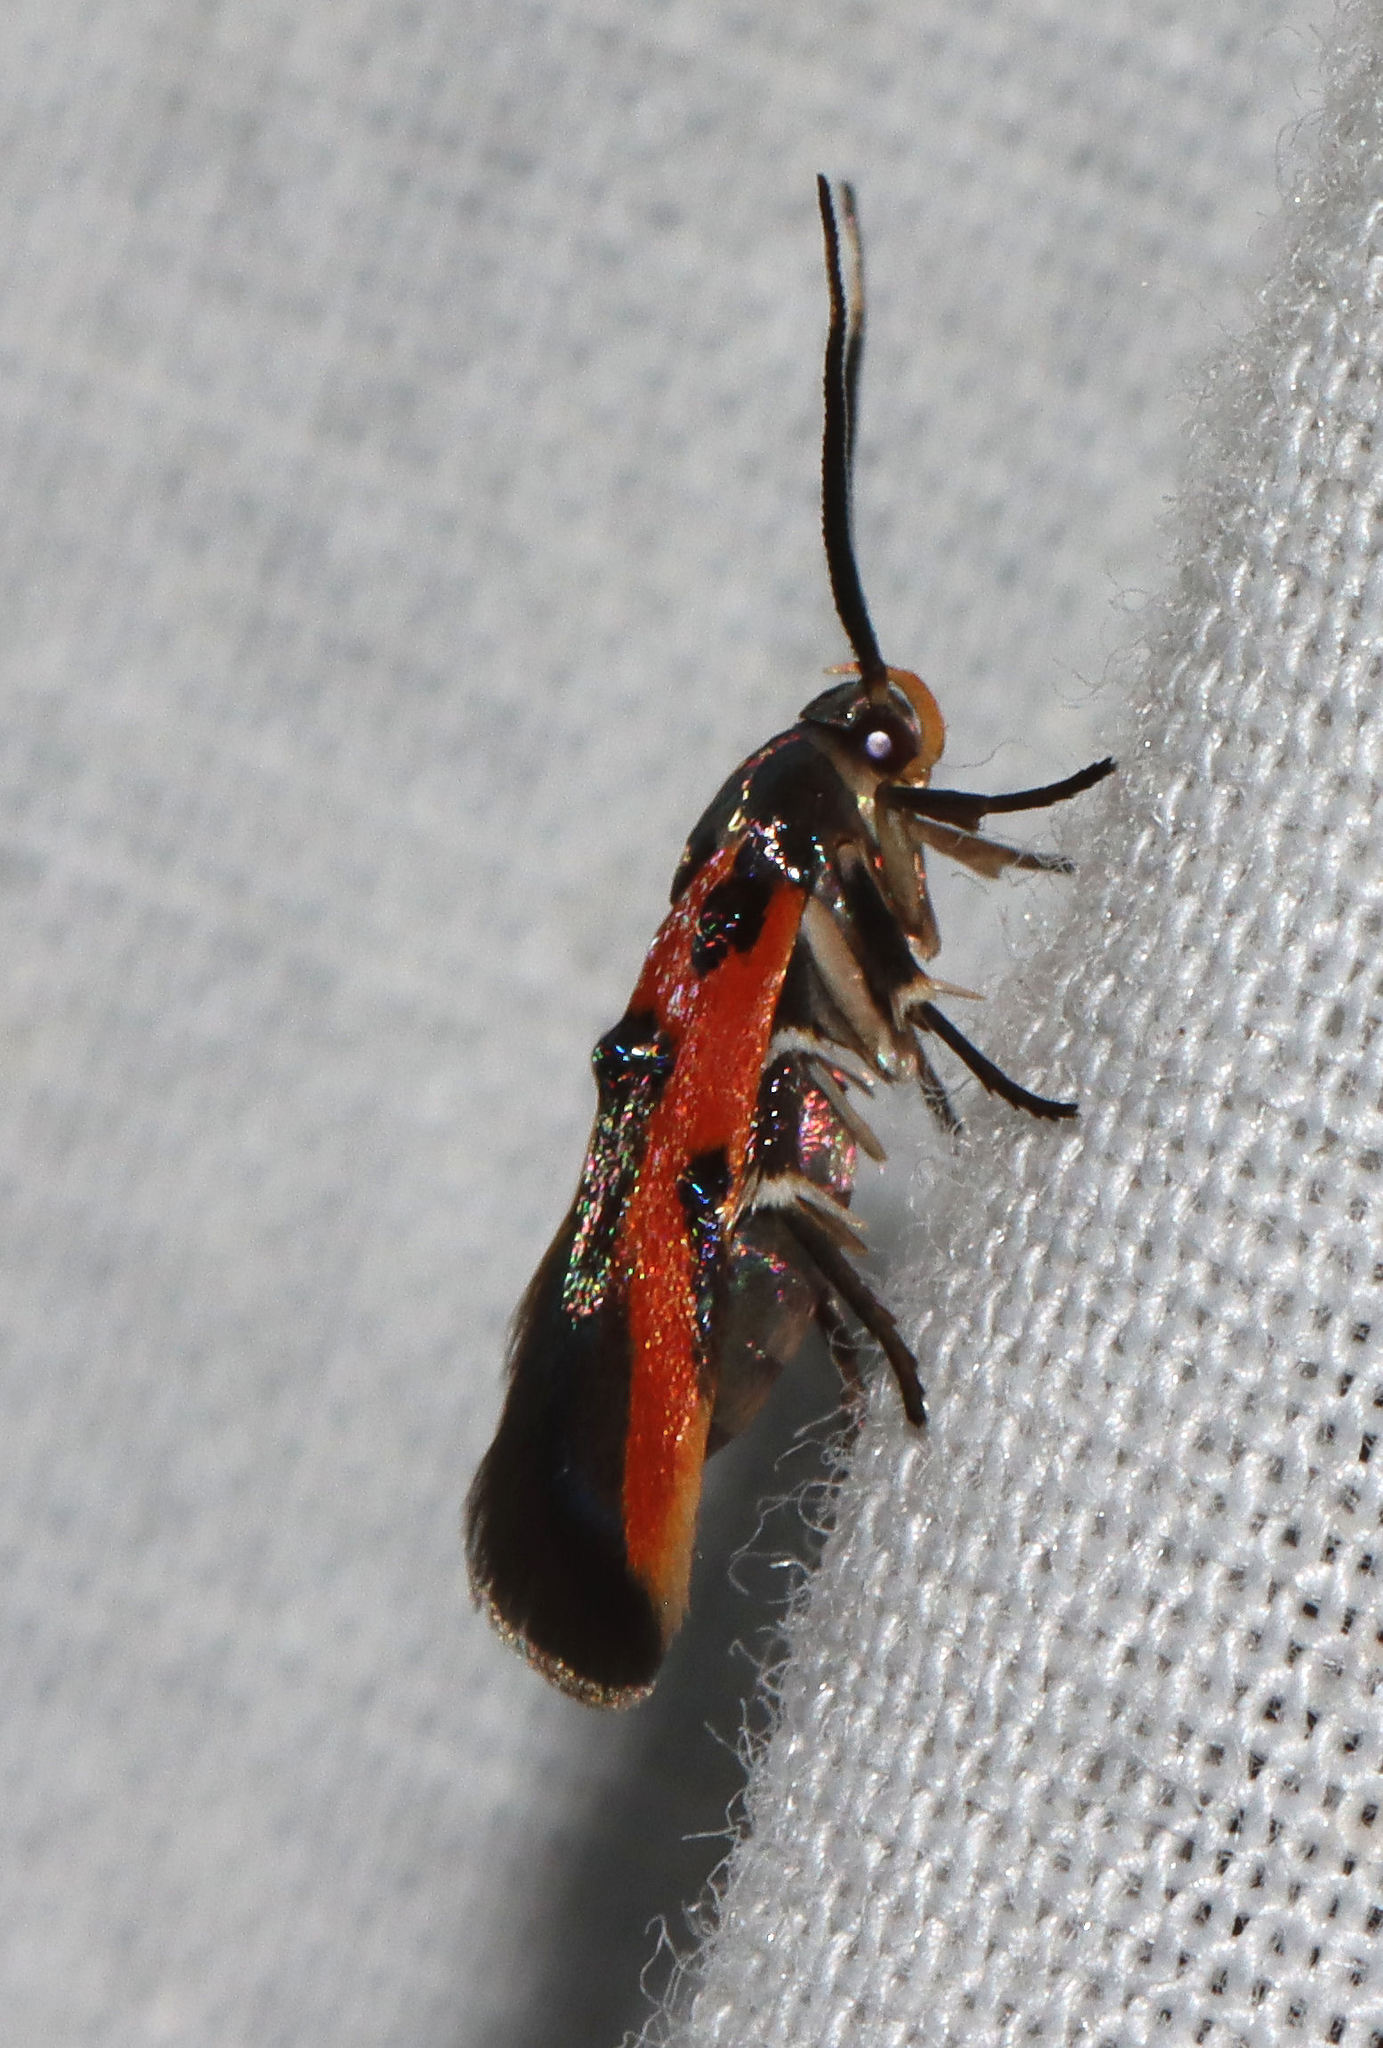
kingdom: Animalia
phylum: Arthropoda
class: Insecta
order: Lepidoptera
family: Cosmopterigidae
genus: Euclemensia
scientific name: Euclemensia bassettella
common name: Kermes scale moth
